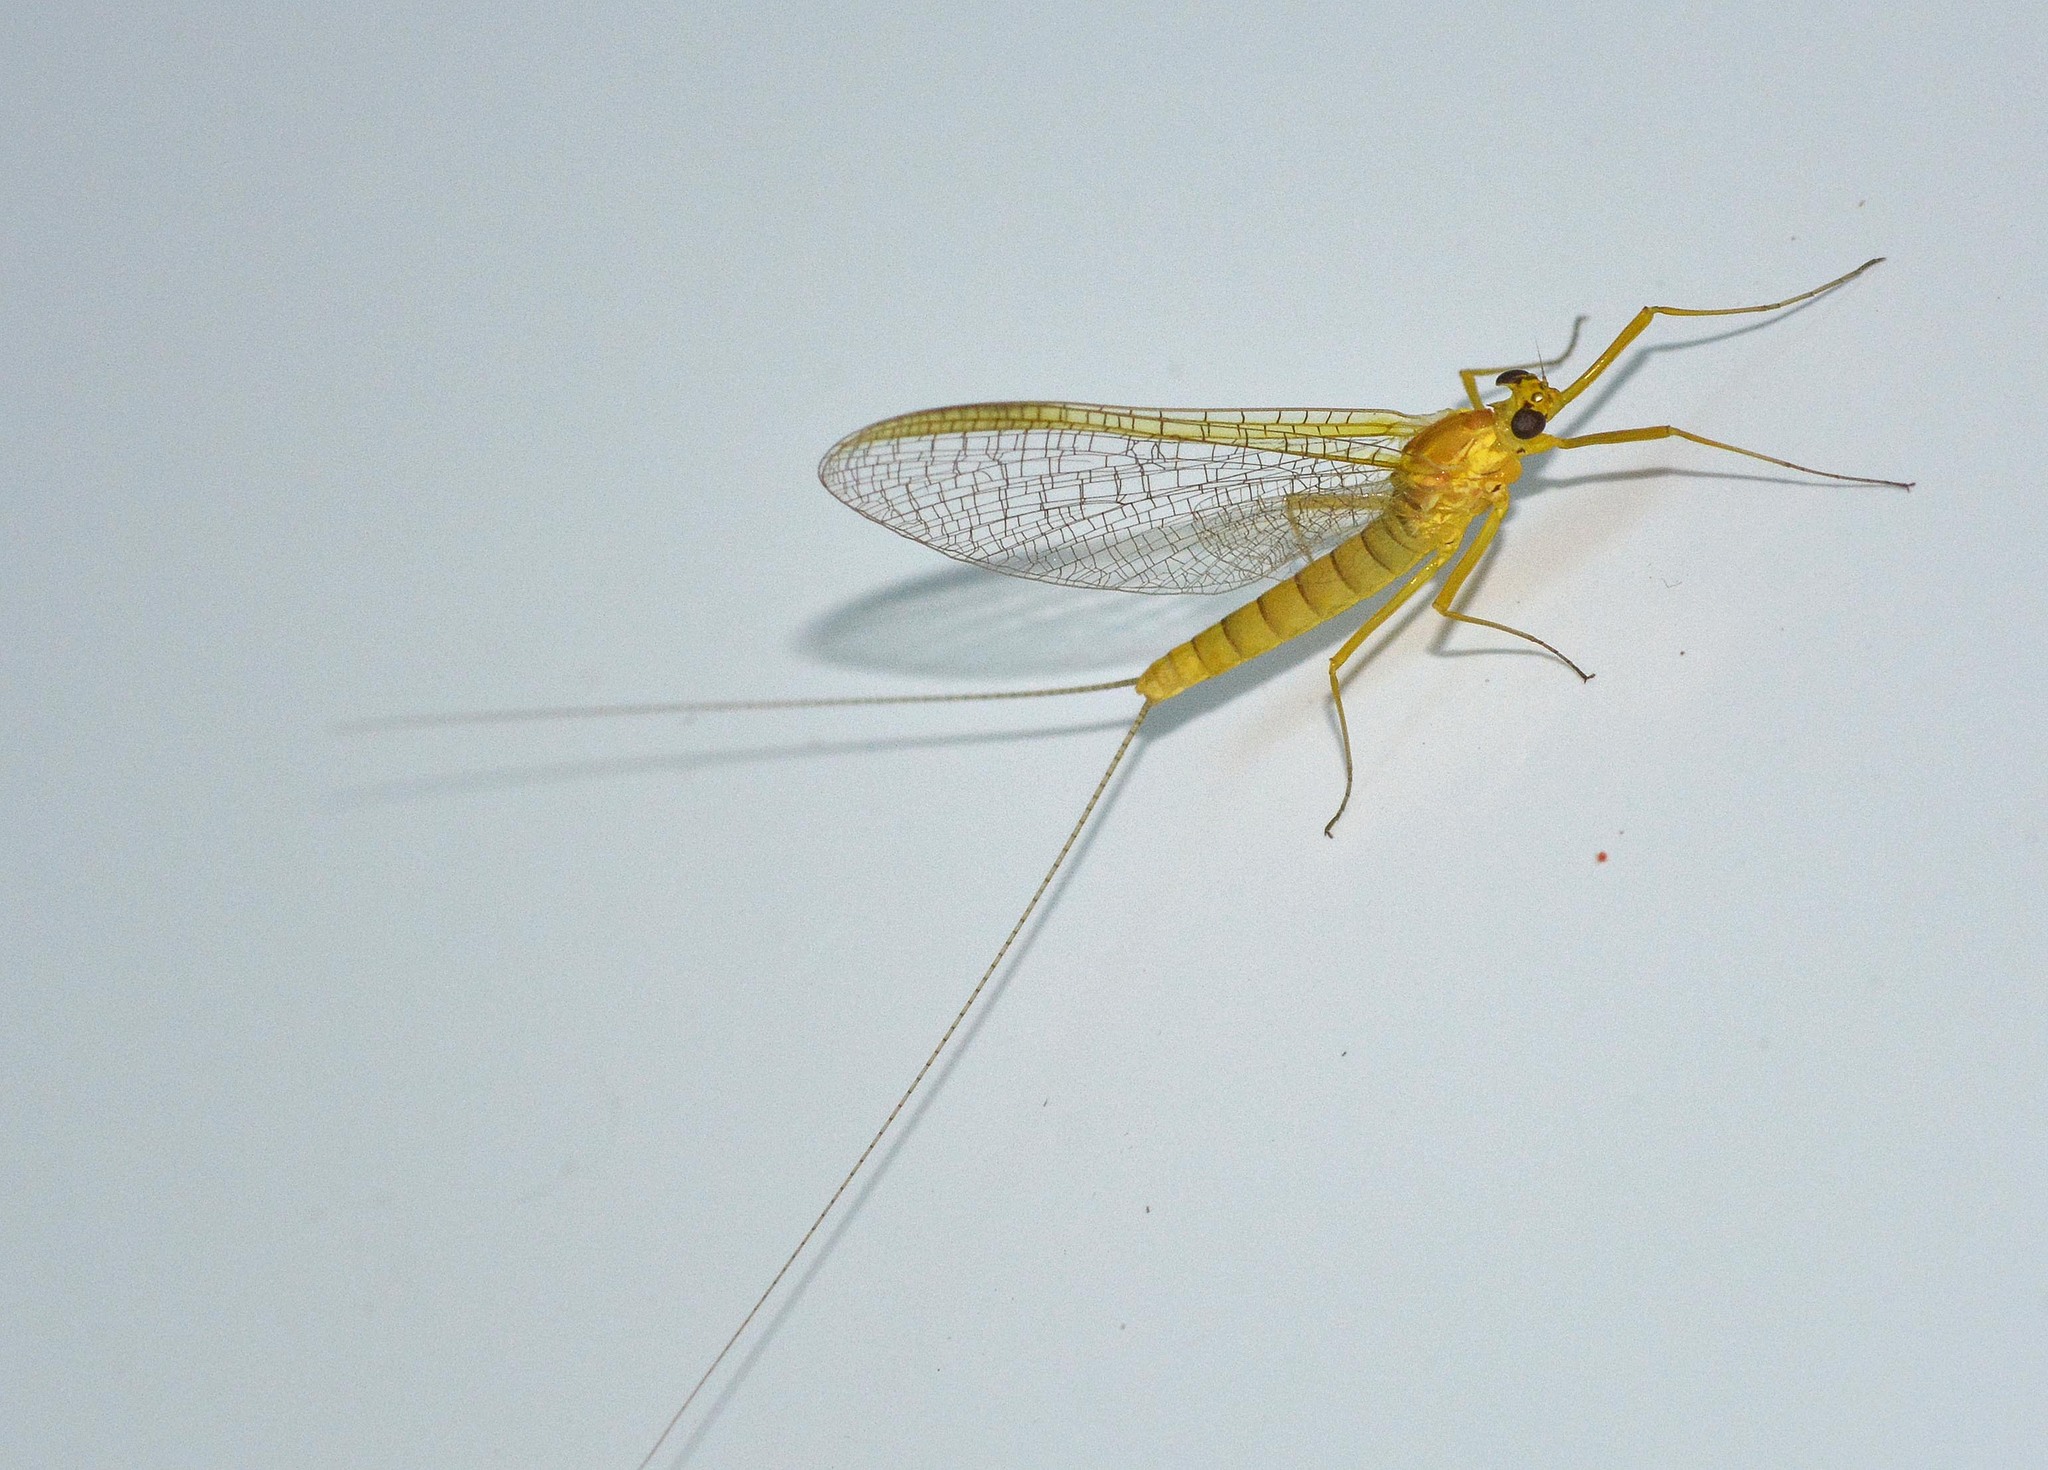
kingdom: Animalia
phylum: Arthropoda
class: Insecta
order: Ephemeroptera
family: Heptageniidae
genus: Heptagenia
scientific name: Heptagenia sulphurea
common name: Yellow may dun
